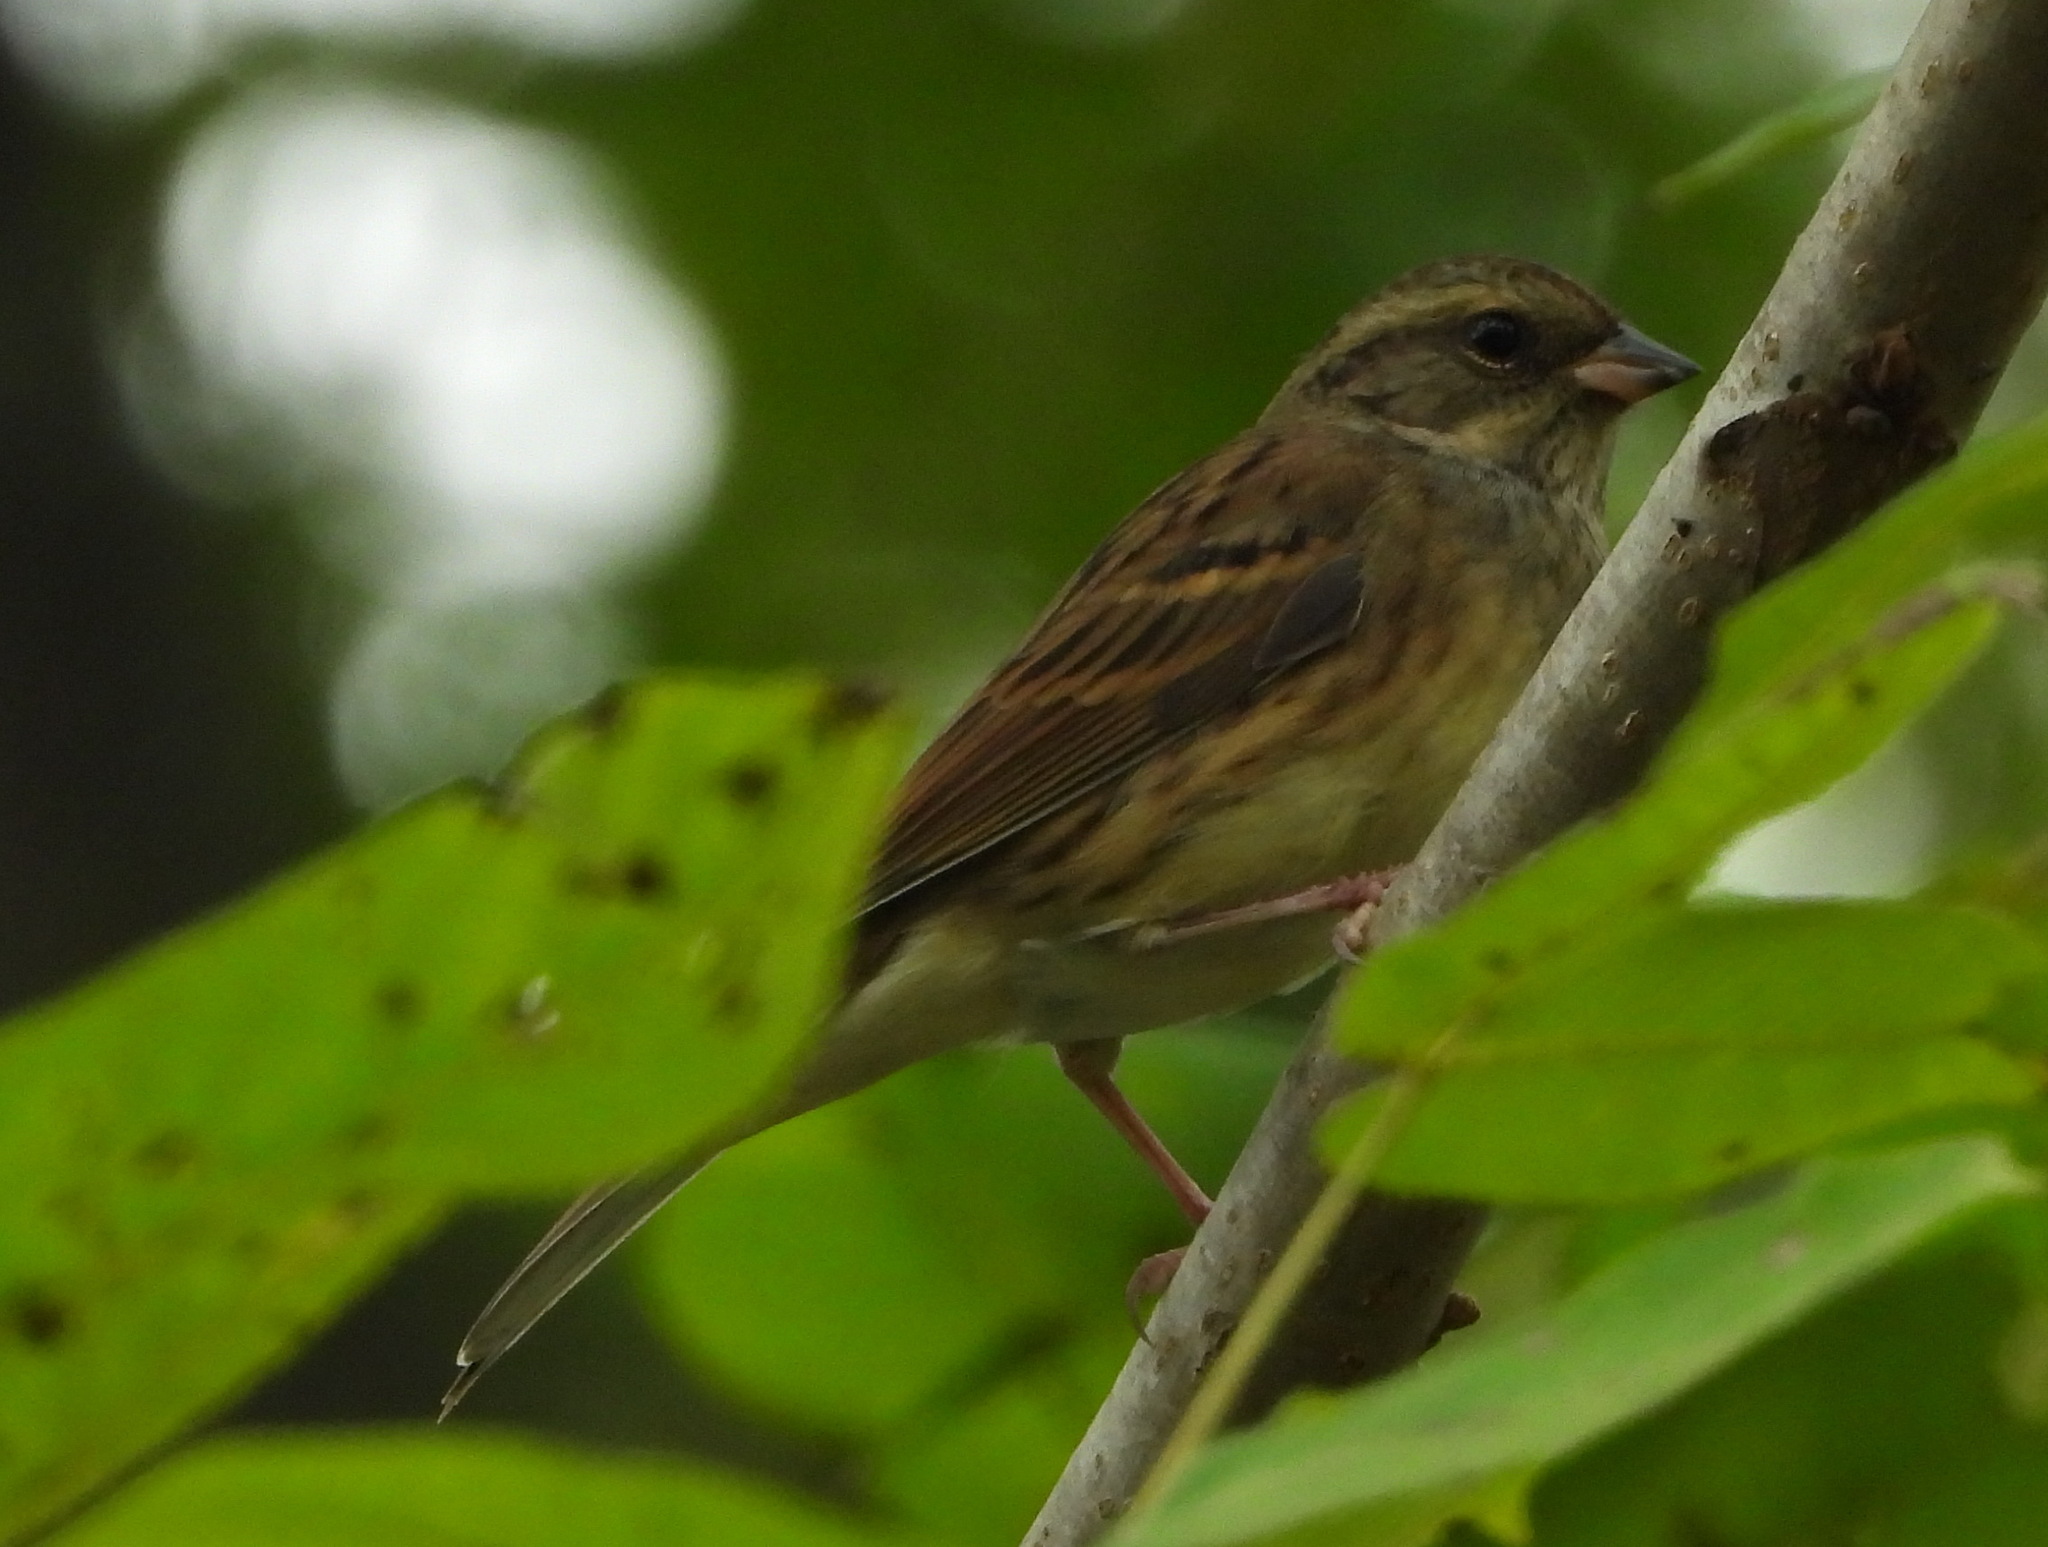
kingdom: Animalia
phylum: Chordata
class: Aves
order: Passeriformes
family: Emberizidae
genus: Emberiza
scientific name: Emberiza spodocephala
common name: Black-faced bunting
